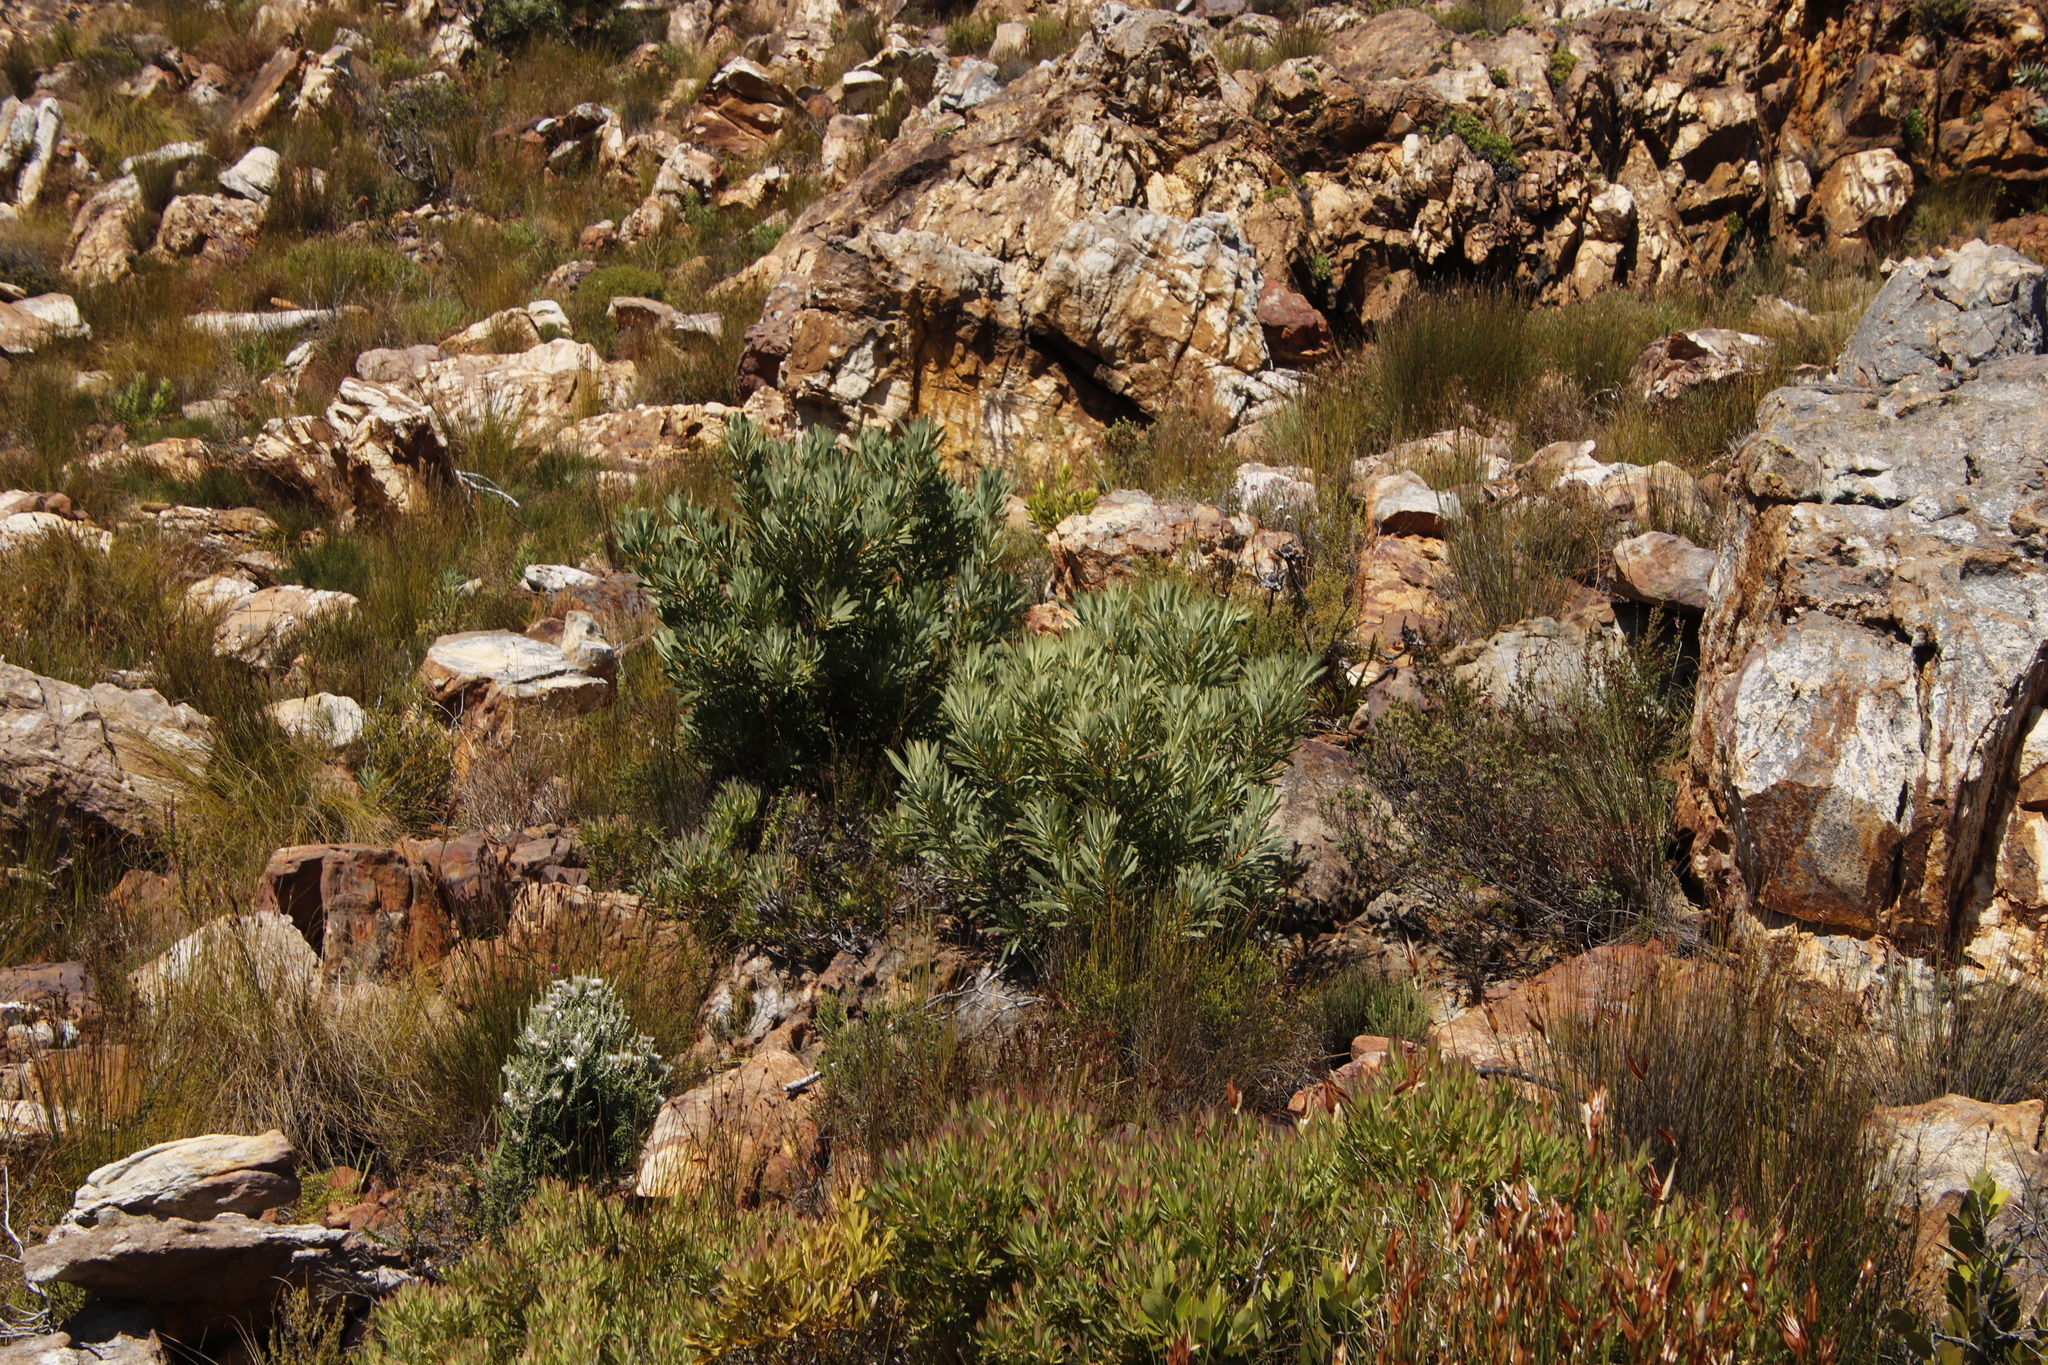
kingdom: Plantae
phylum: Tracheophyta
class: Magnoliopsida
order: Proteales
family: Proteaceae
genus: Protea
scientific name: Protea repens
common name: Sugarbush
